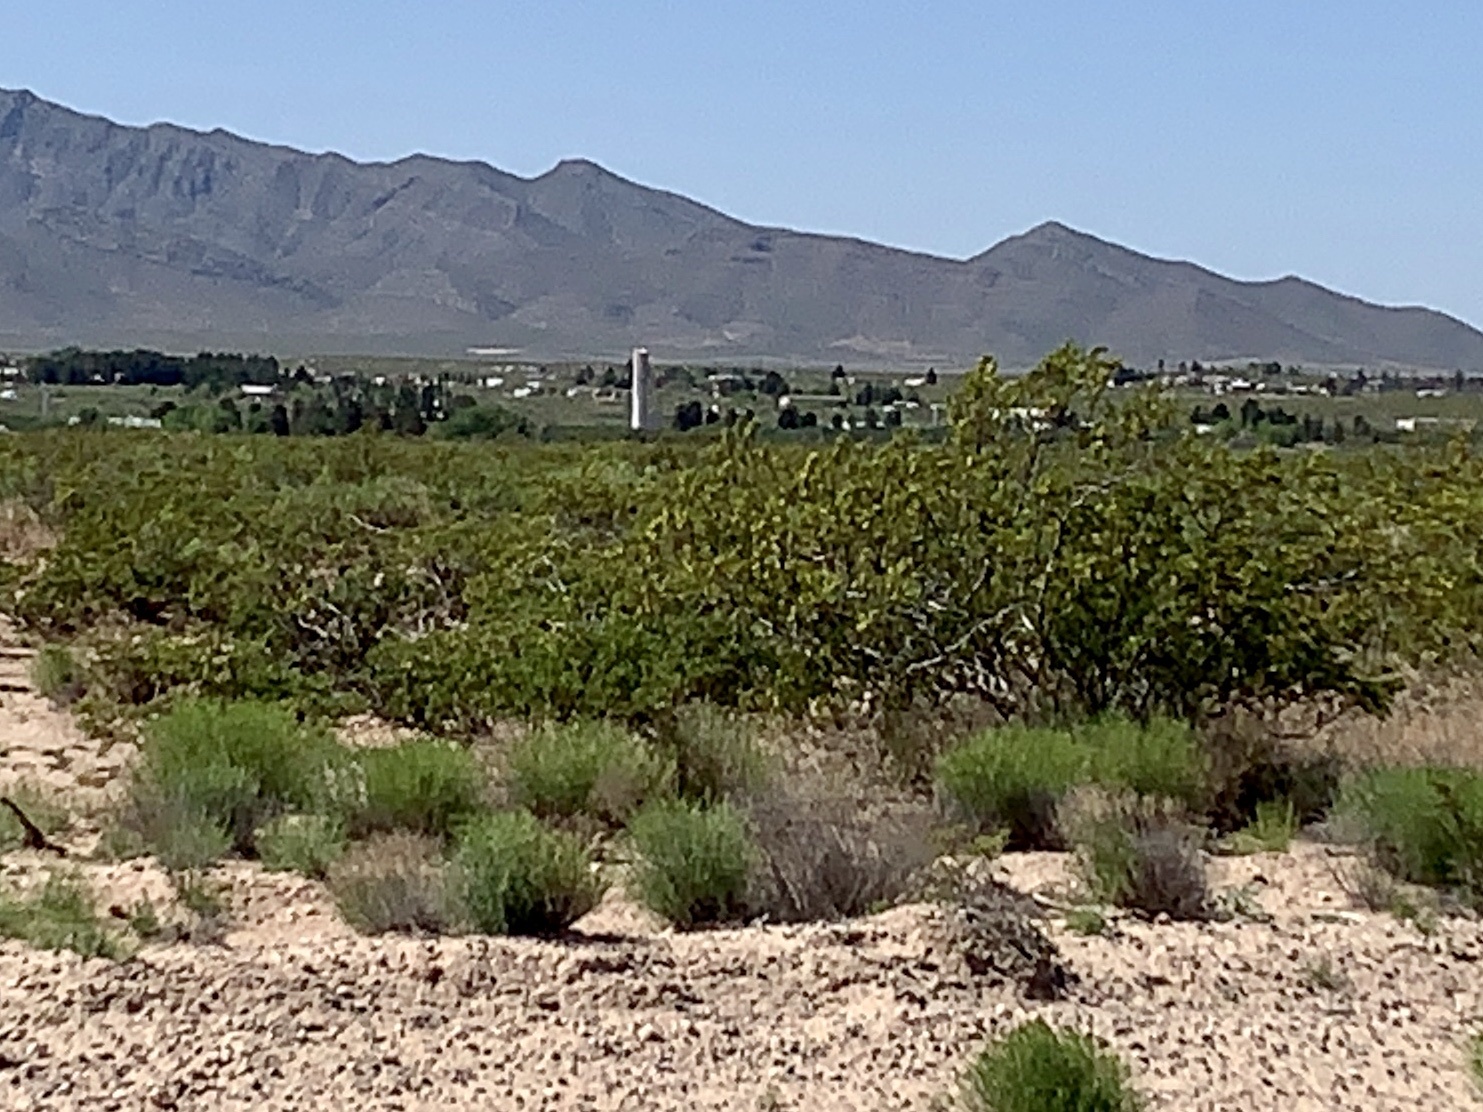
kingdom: Plantae
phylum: Tracheophyta
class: Magnoliopsida
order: Zygophyllales
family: Zygophyllaceae
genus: Larrea
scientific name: Larrea tridentata
